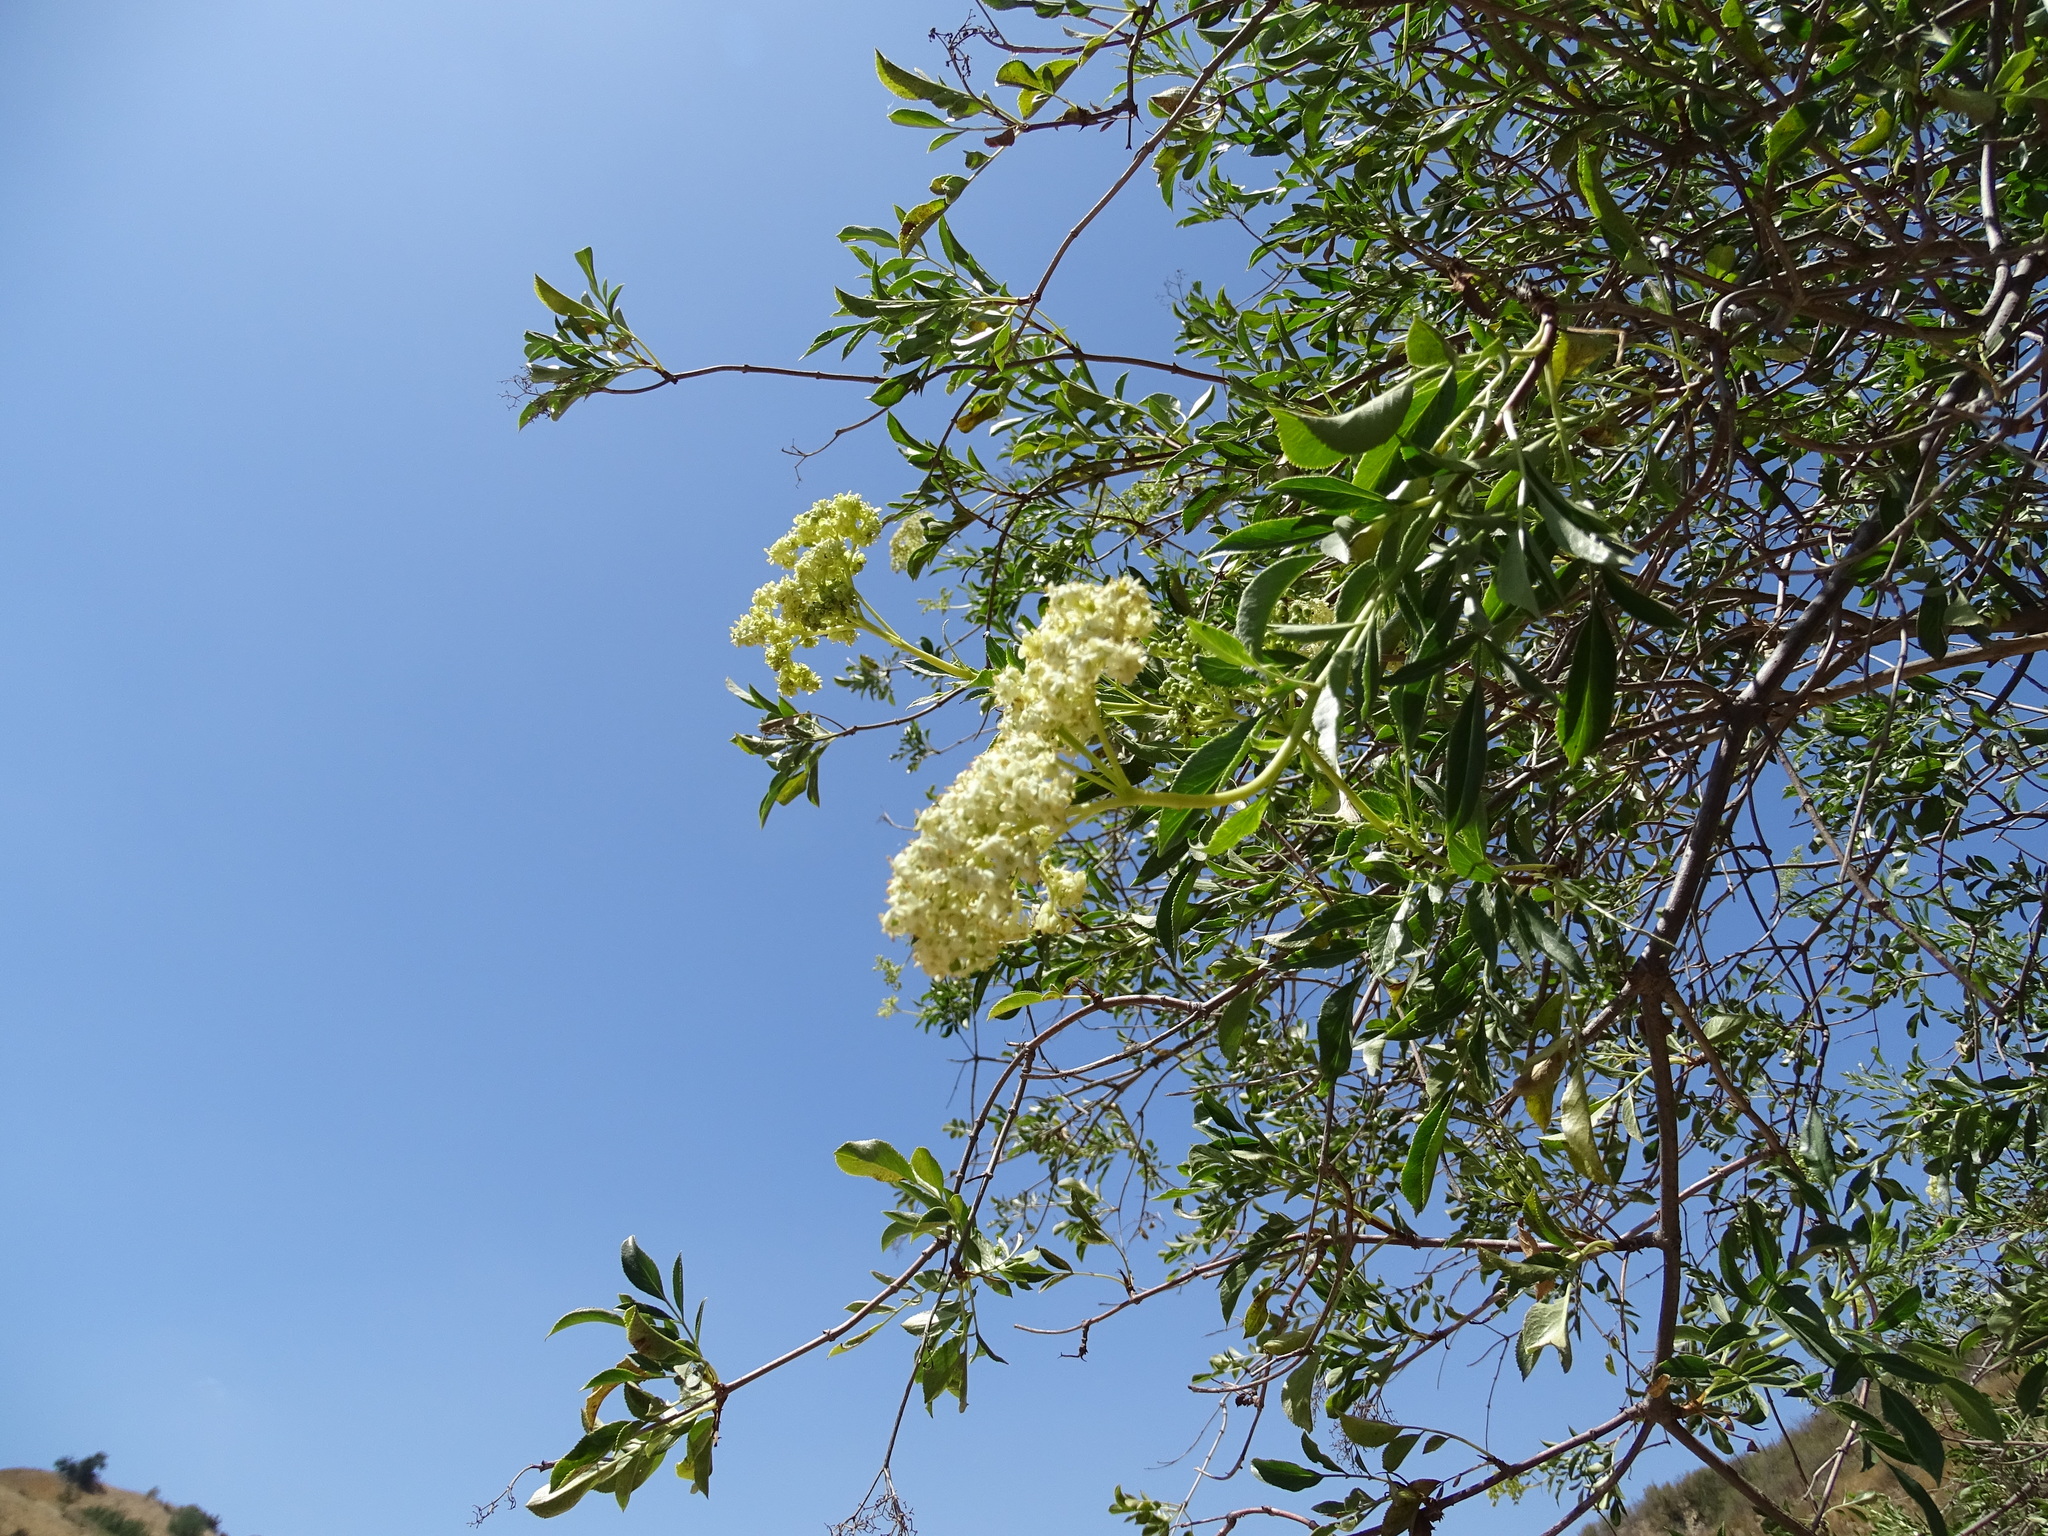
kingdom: Plantae
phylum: Tracheophyta
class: Magnoliopsida
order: Dipsacales
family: Viburnaceae
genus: Sambucus
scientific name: Sambucus cerulea
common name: Blue elder
